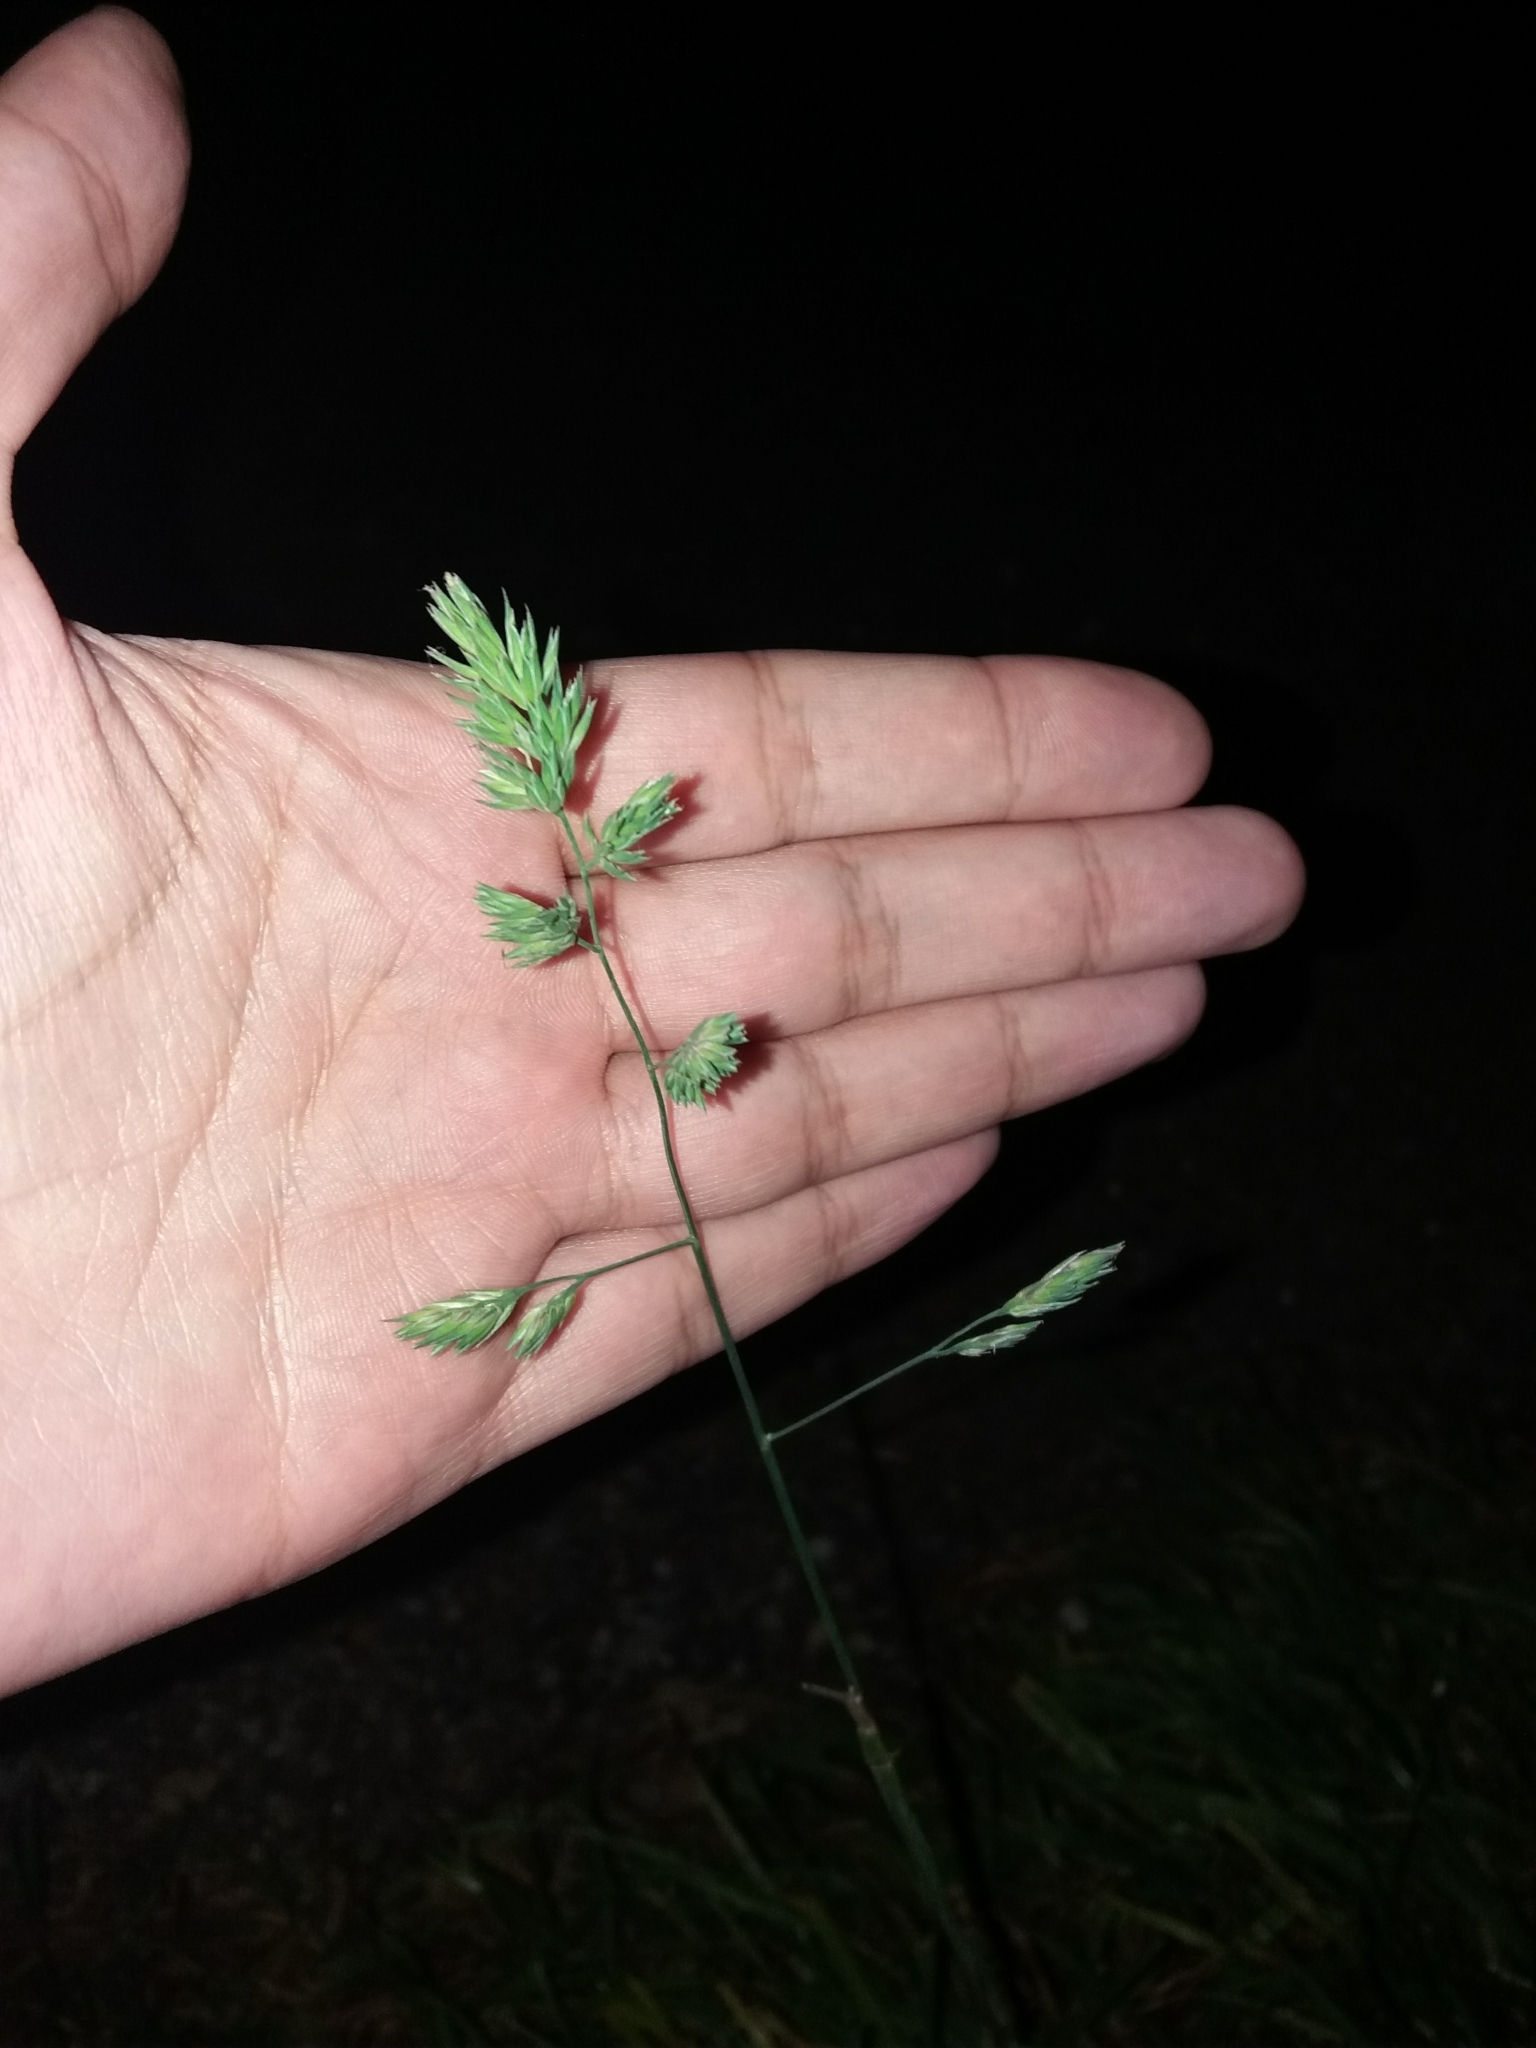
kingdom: Plantae
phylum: Tracheophyta
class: Liliopsida
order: Poales
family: Poaceae
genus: Dactylis
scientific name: Dactylis glomerata
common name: Orchardgrass
